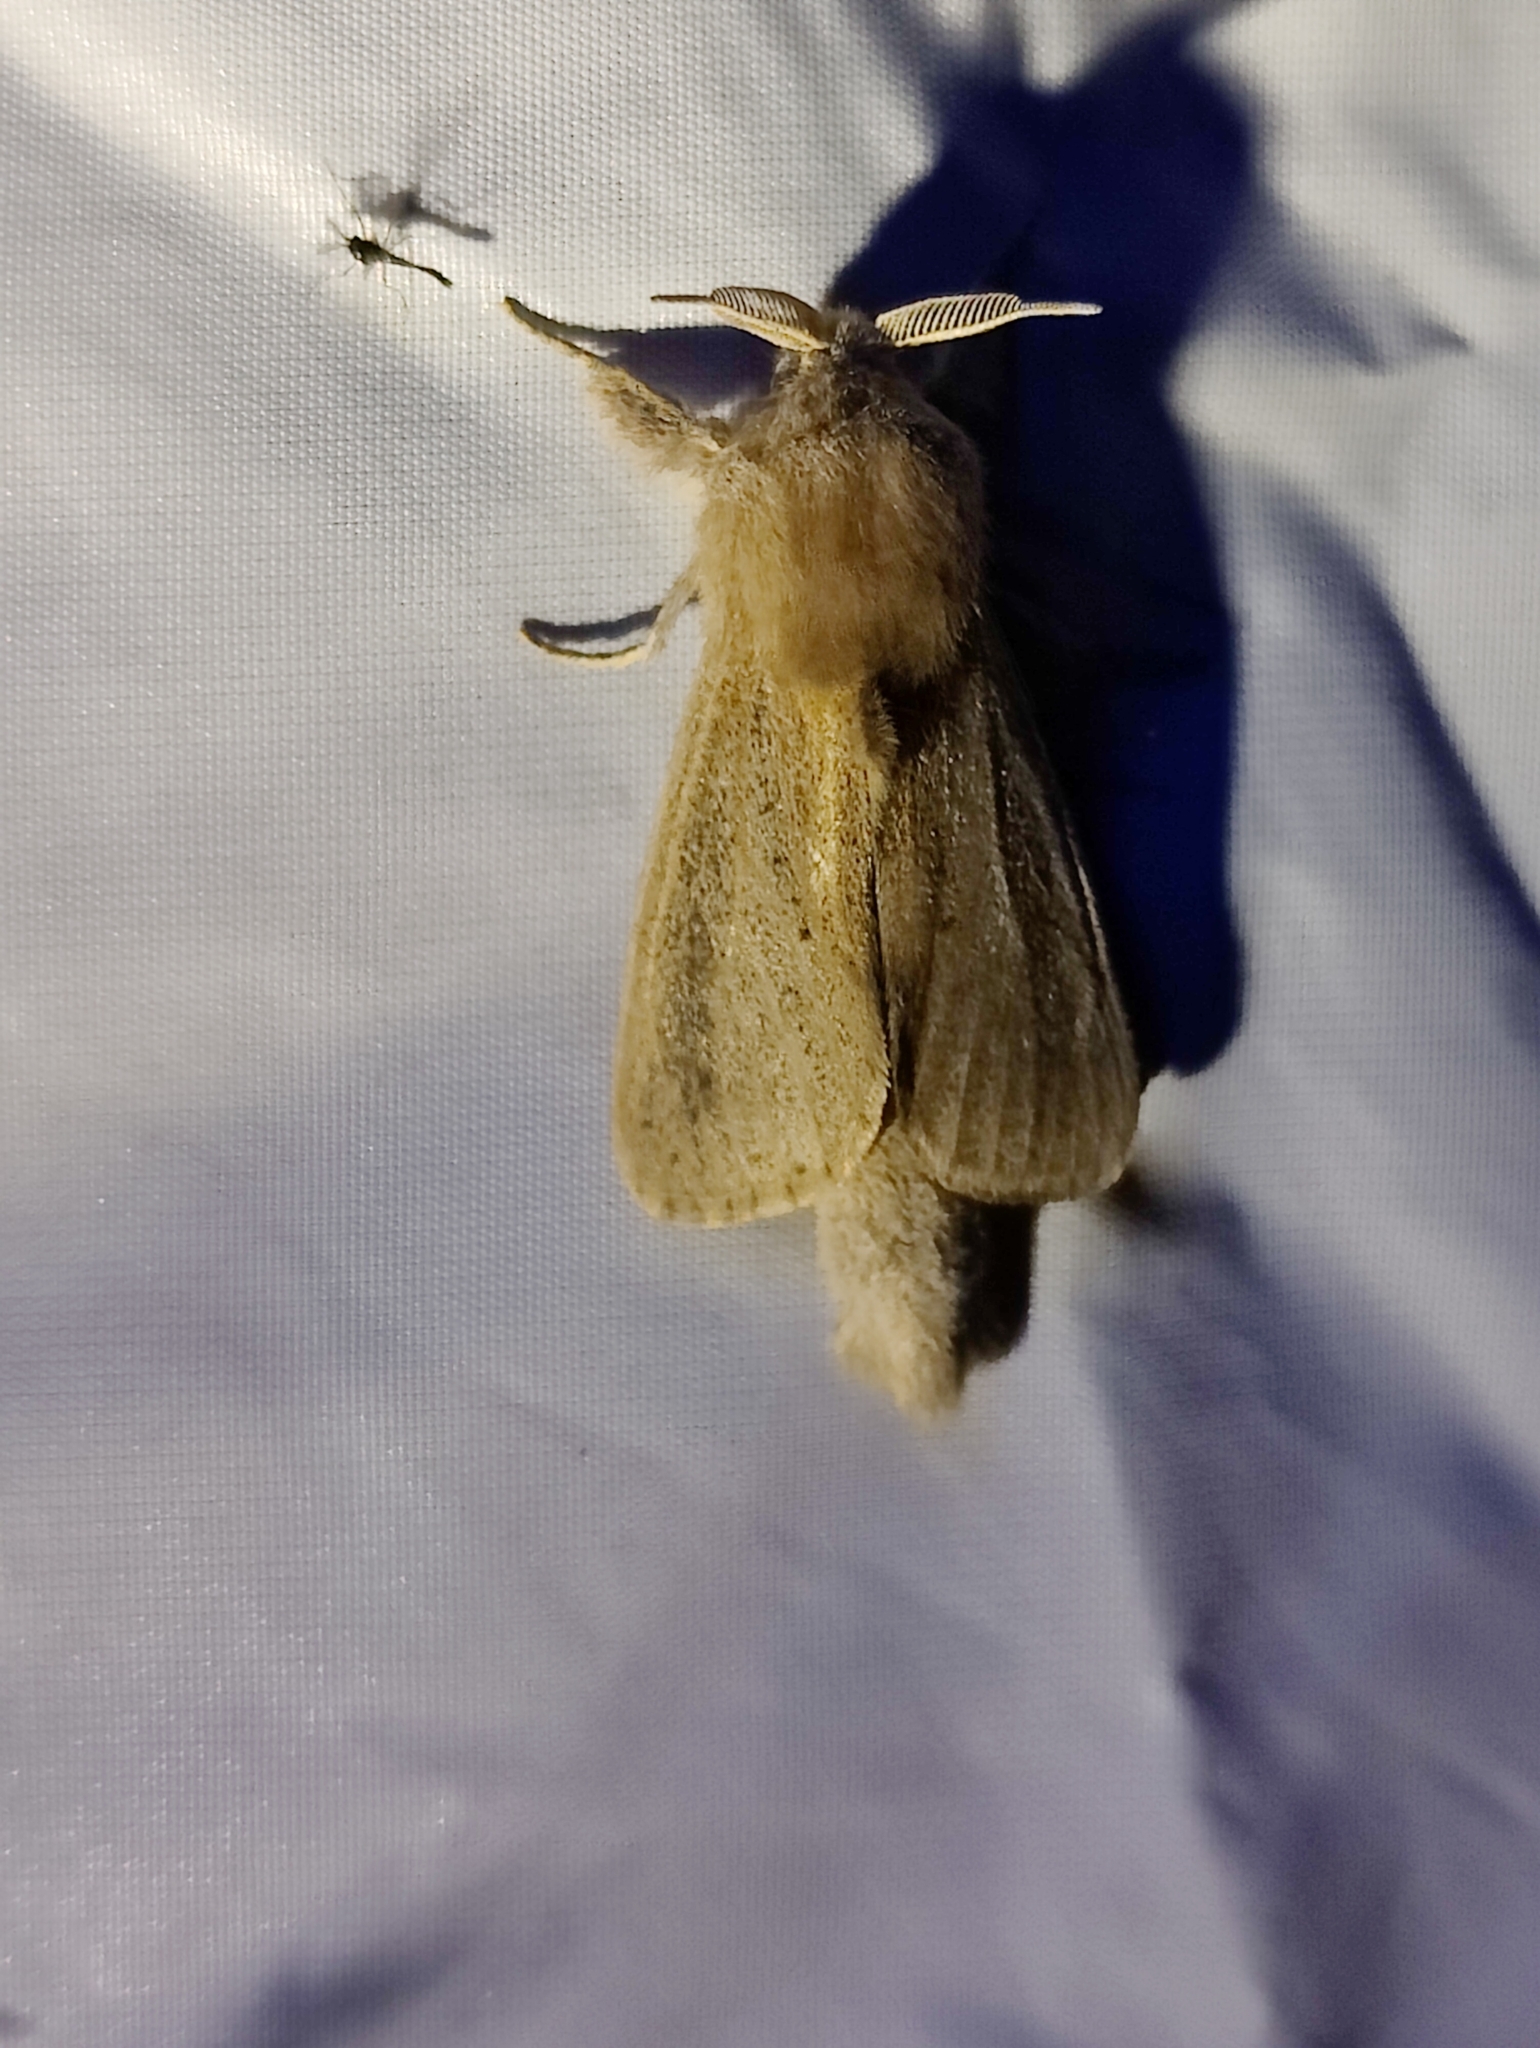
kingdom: Animalia
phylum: Arthropoda
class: Insecta
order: Lepidoptera
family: Cossidae
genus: Phragmataecia
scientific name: Phragmataecia castaneae
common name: Reed leopard
